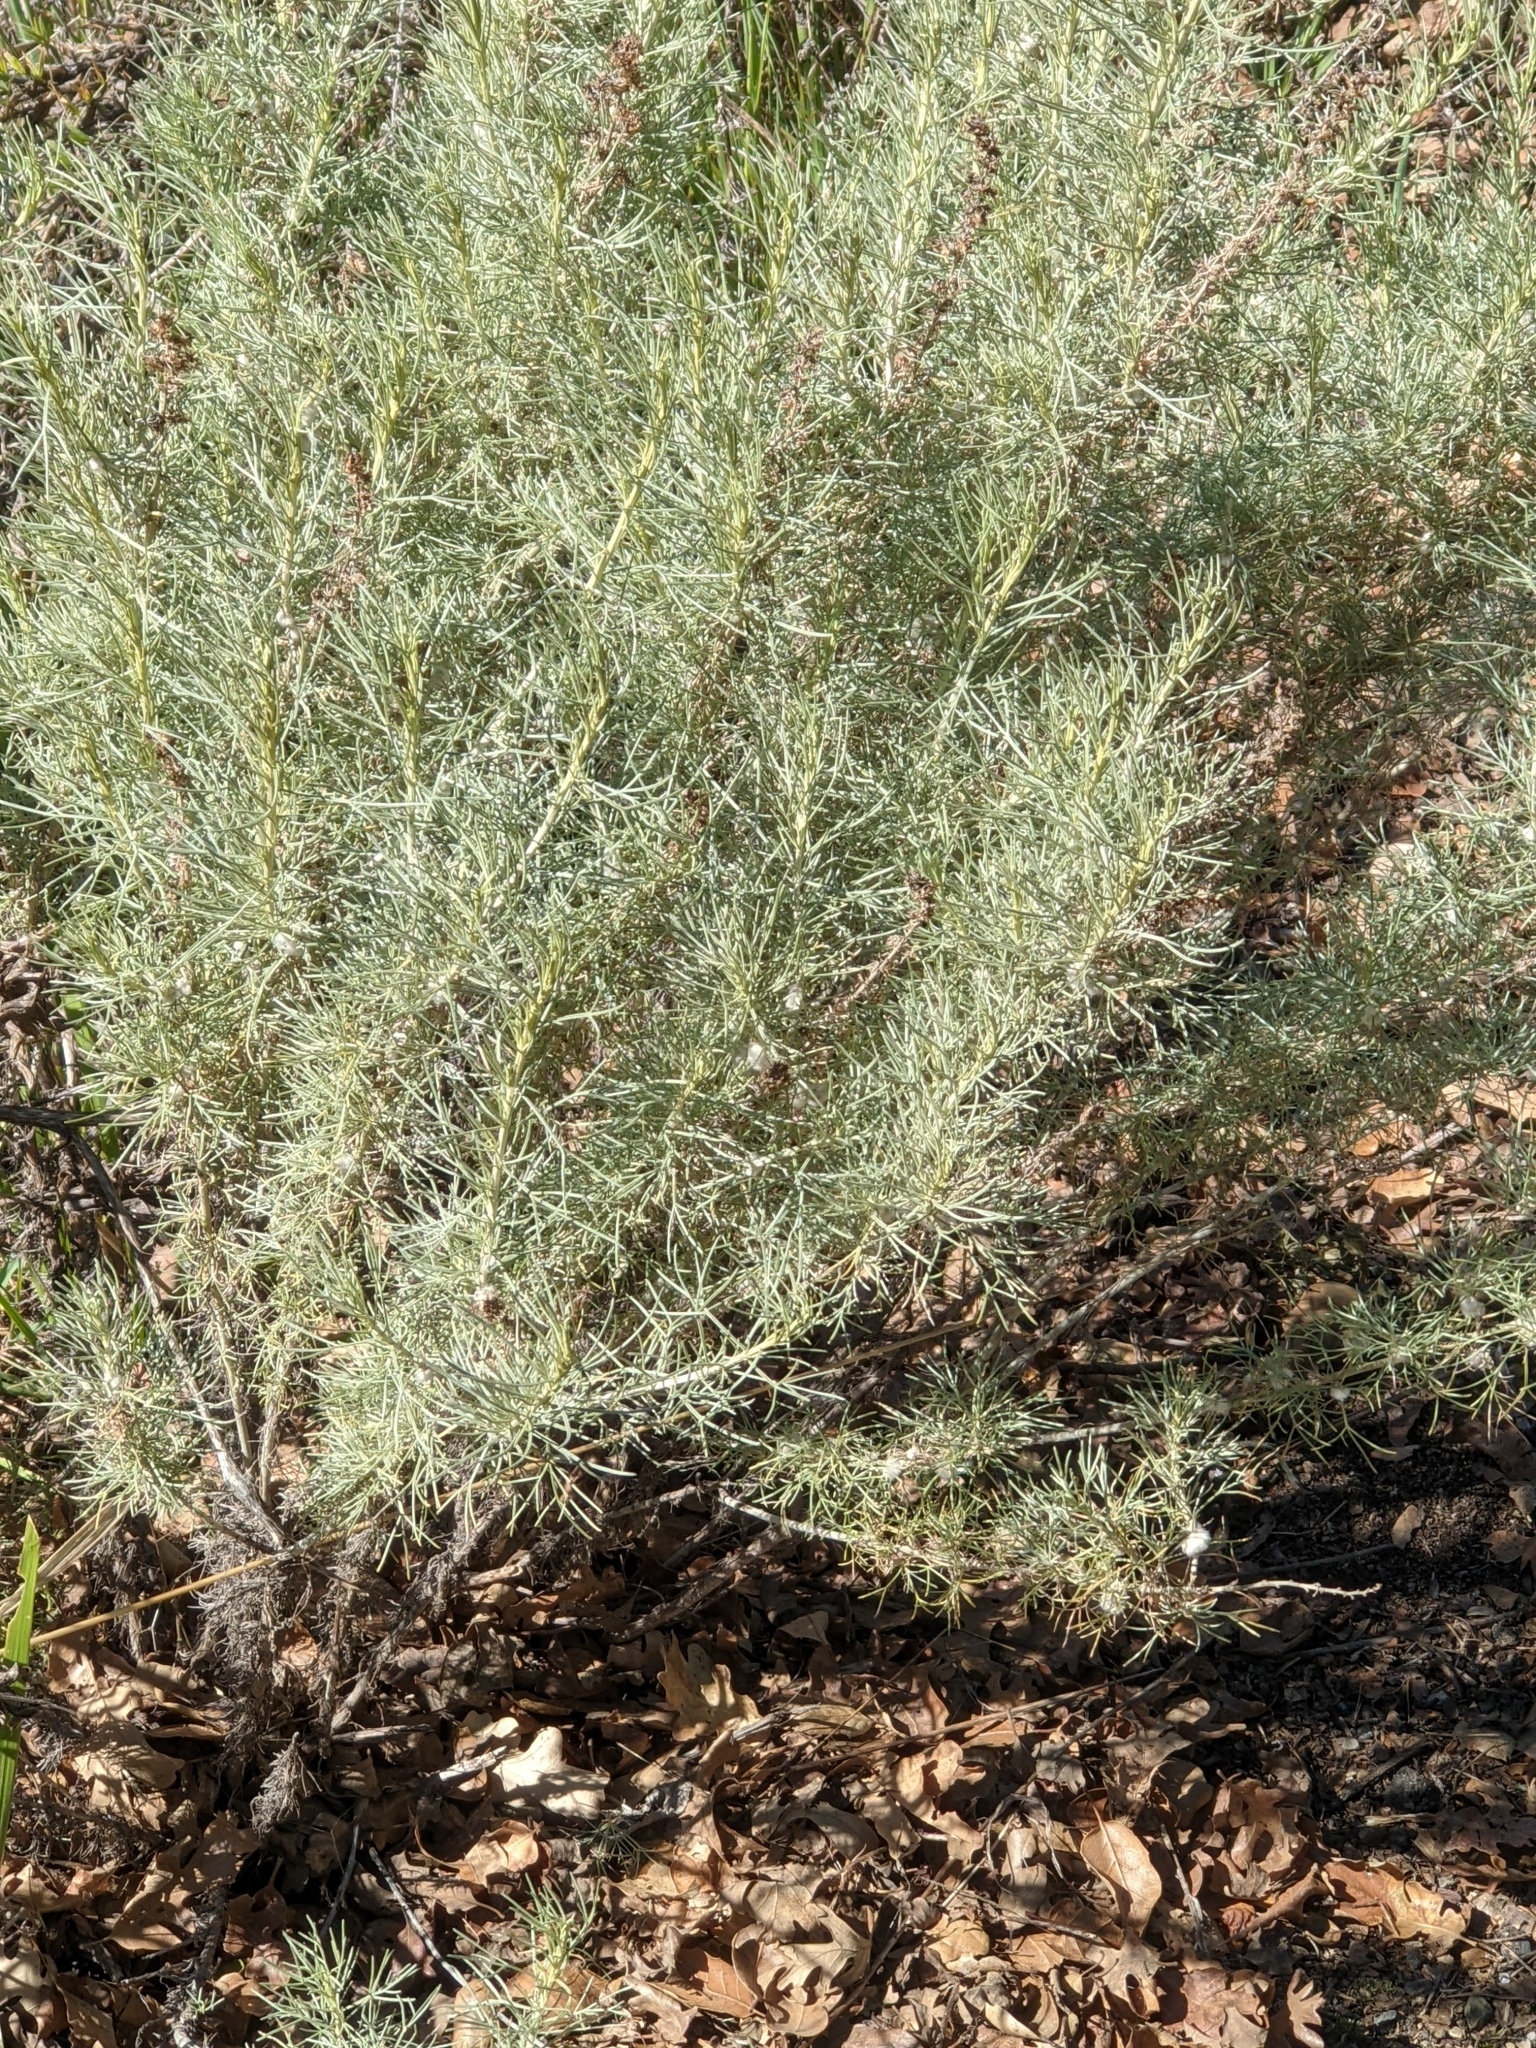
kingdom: Plantae
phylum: Tracheophyta
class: Magnoliopsida
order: Asterales
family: Asteraceae
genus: Artemisia
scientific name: Artemisia californica
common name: California sagebrush
